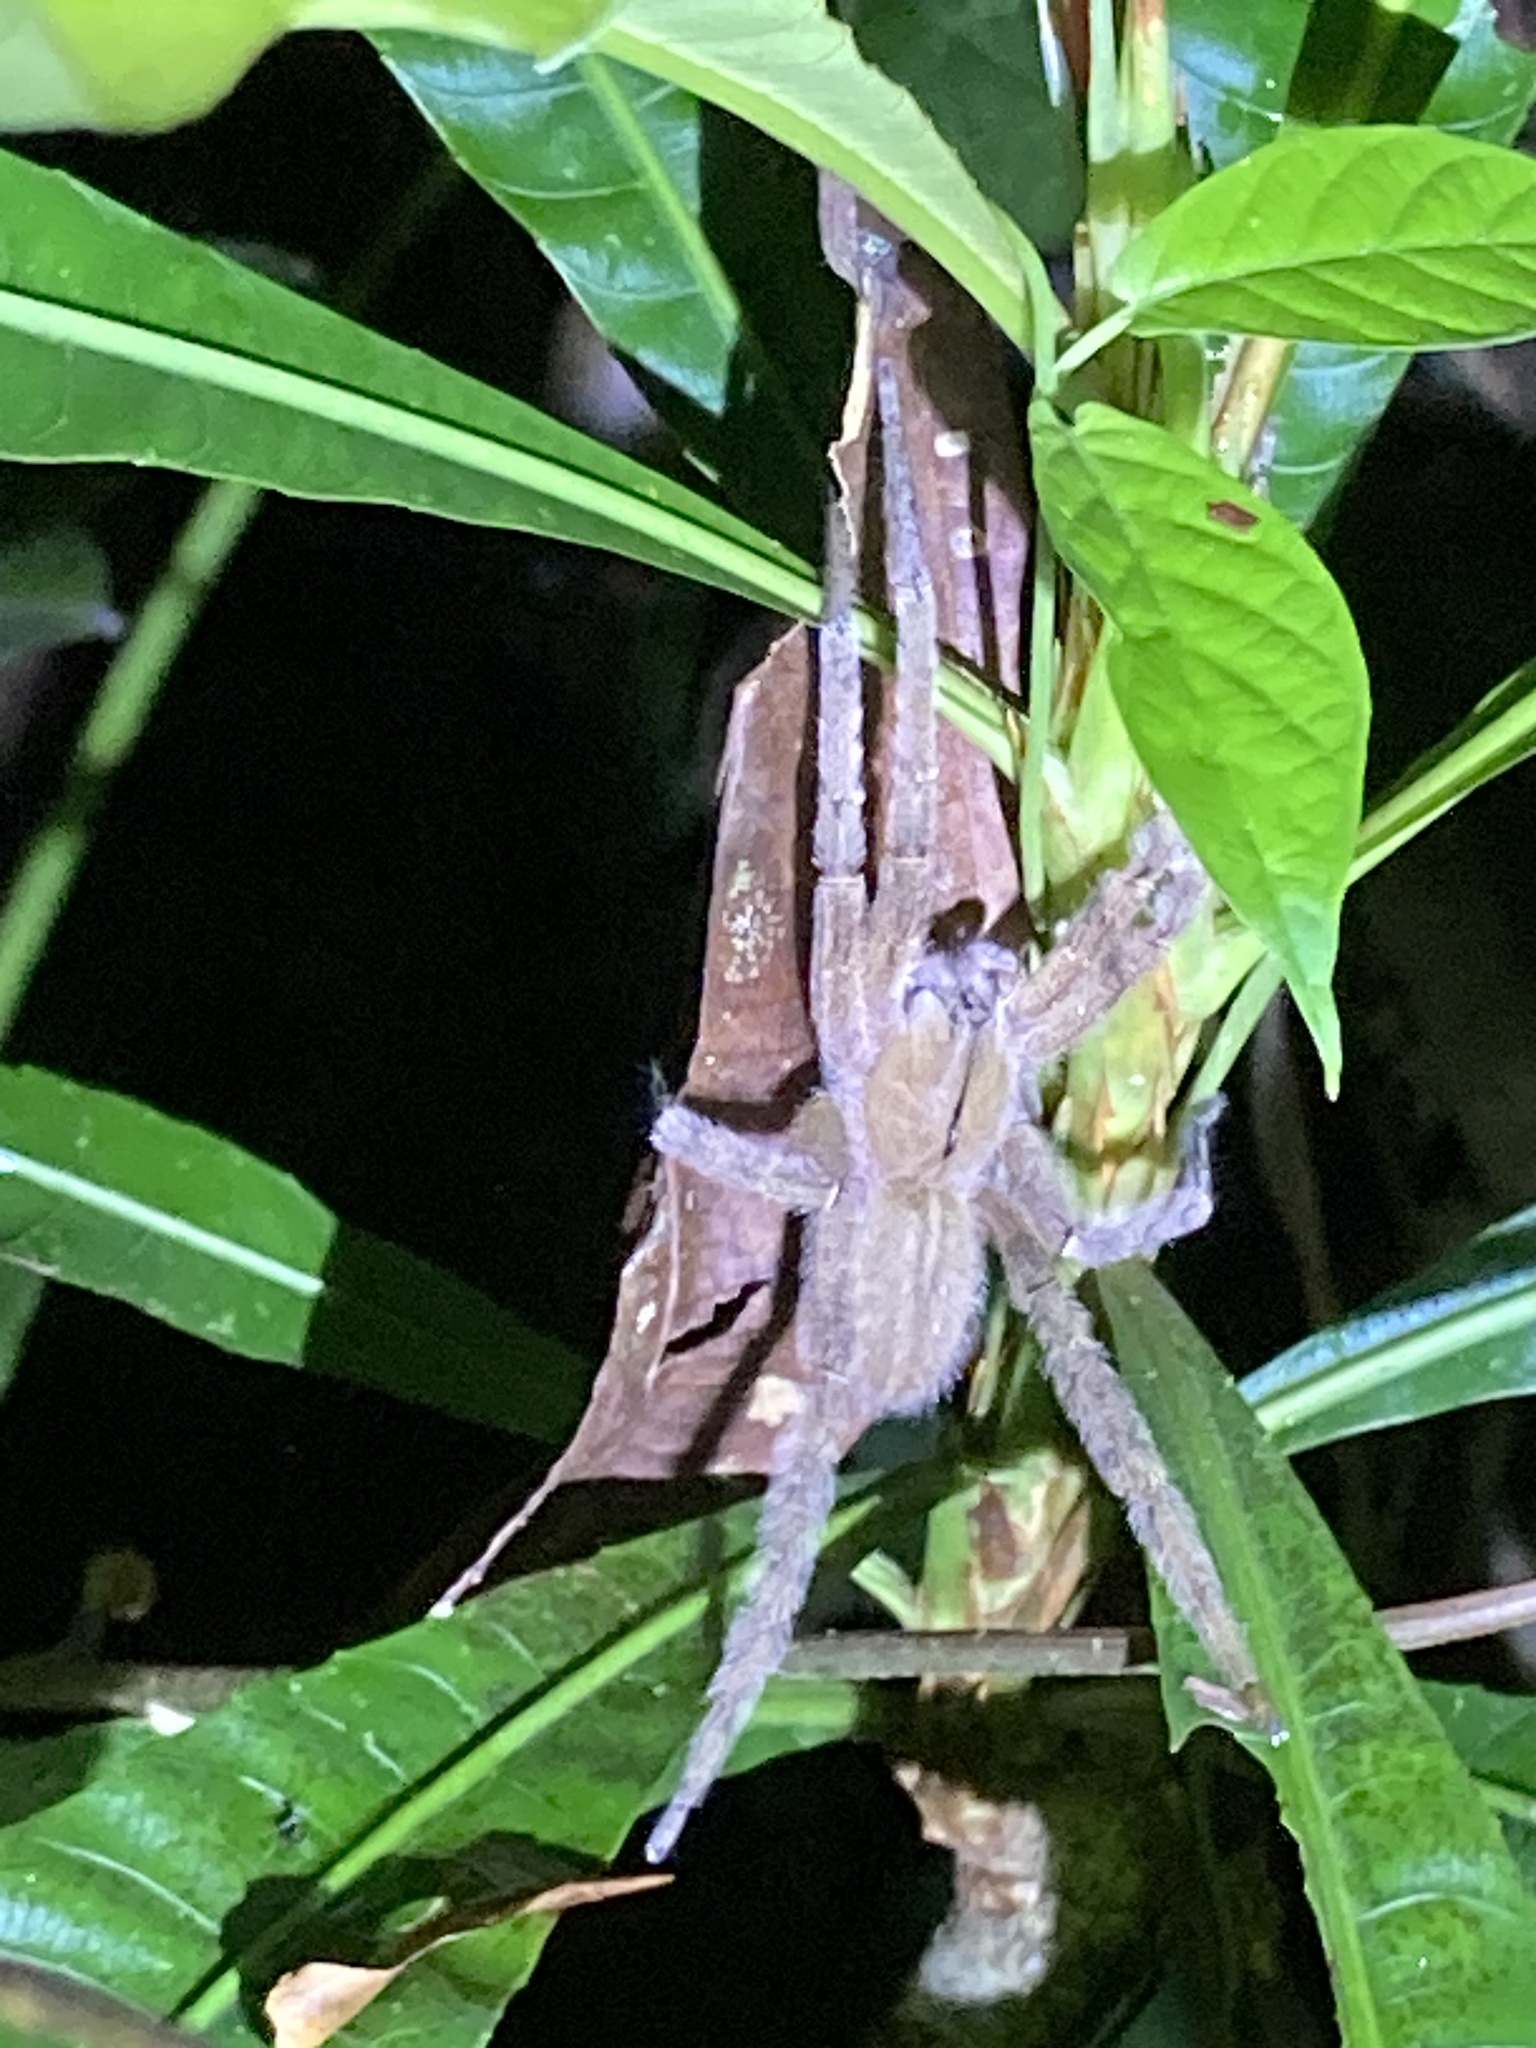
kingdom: Animalia
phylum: Arthropoda
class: Arachnida
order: Araneae
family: Ctenidae
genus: Phoneutria
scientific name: Phoneutria depilata
